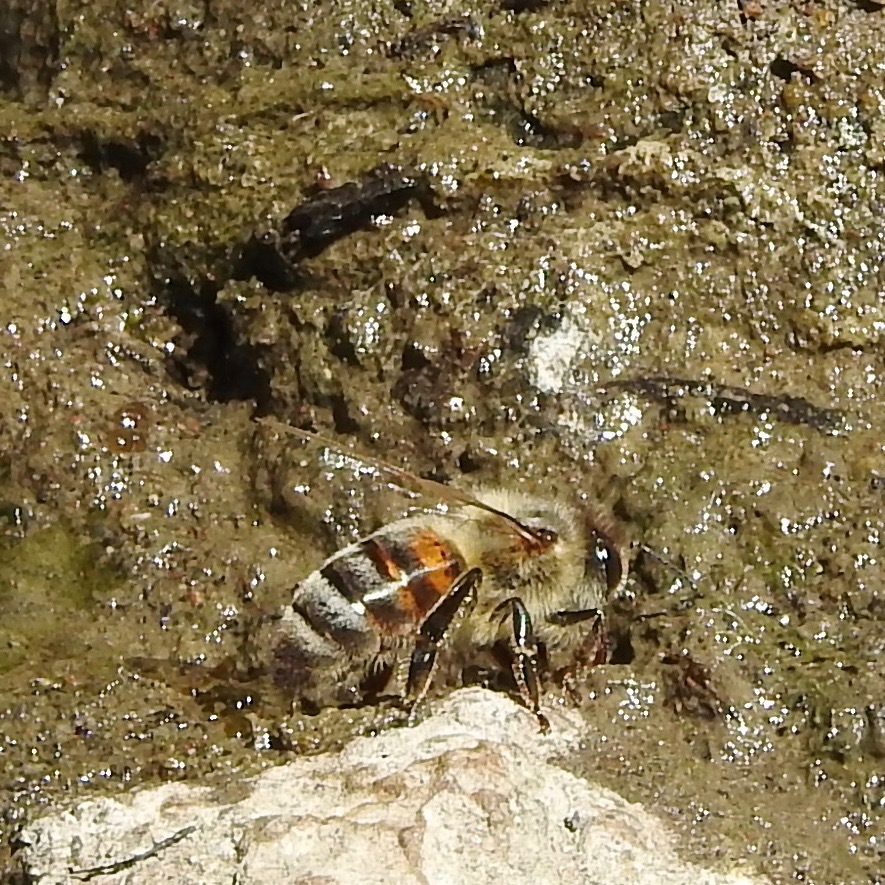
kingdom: Animalia
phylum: Arthropoda
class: Insecta
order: Hymenoptera
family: Apidae
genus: Apis
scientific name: Apis mellifera
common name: Honey bee
